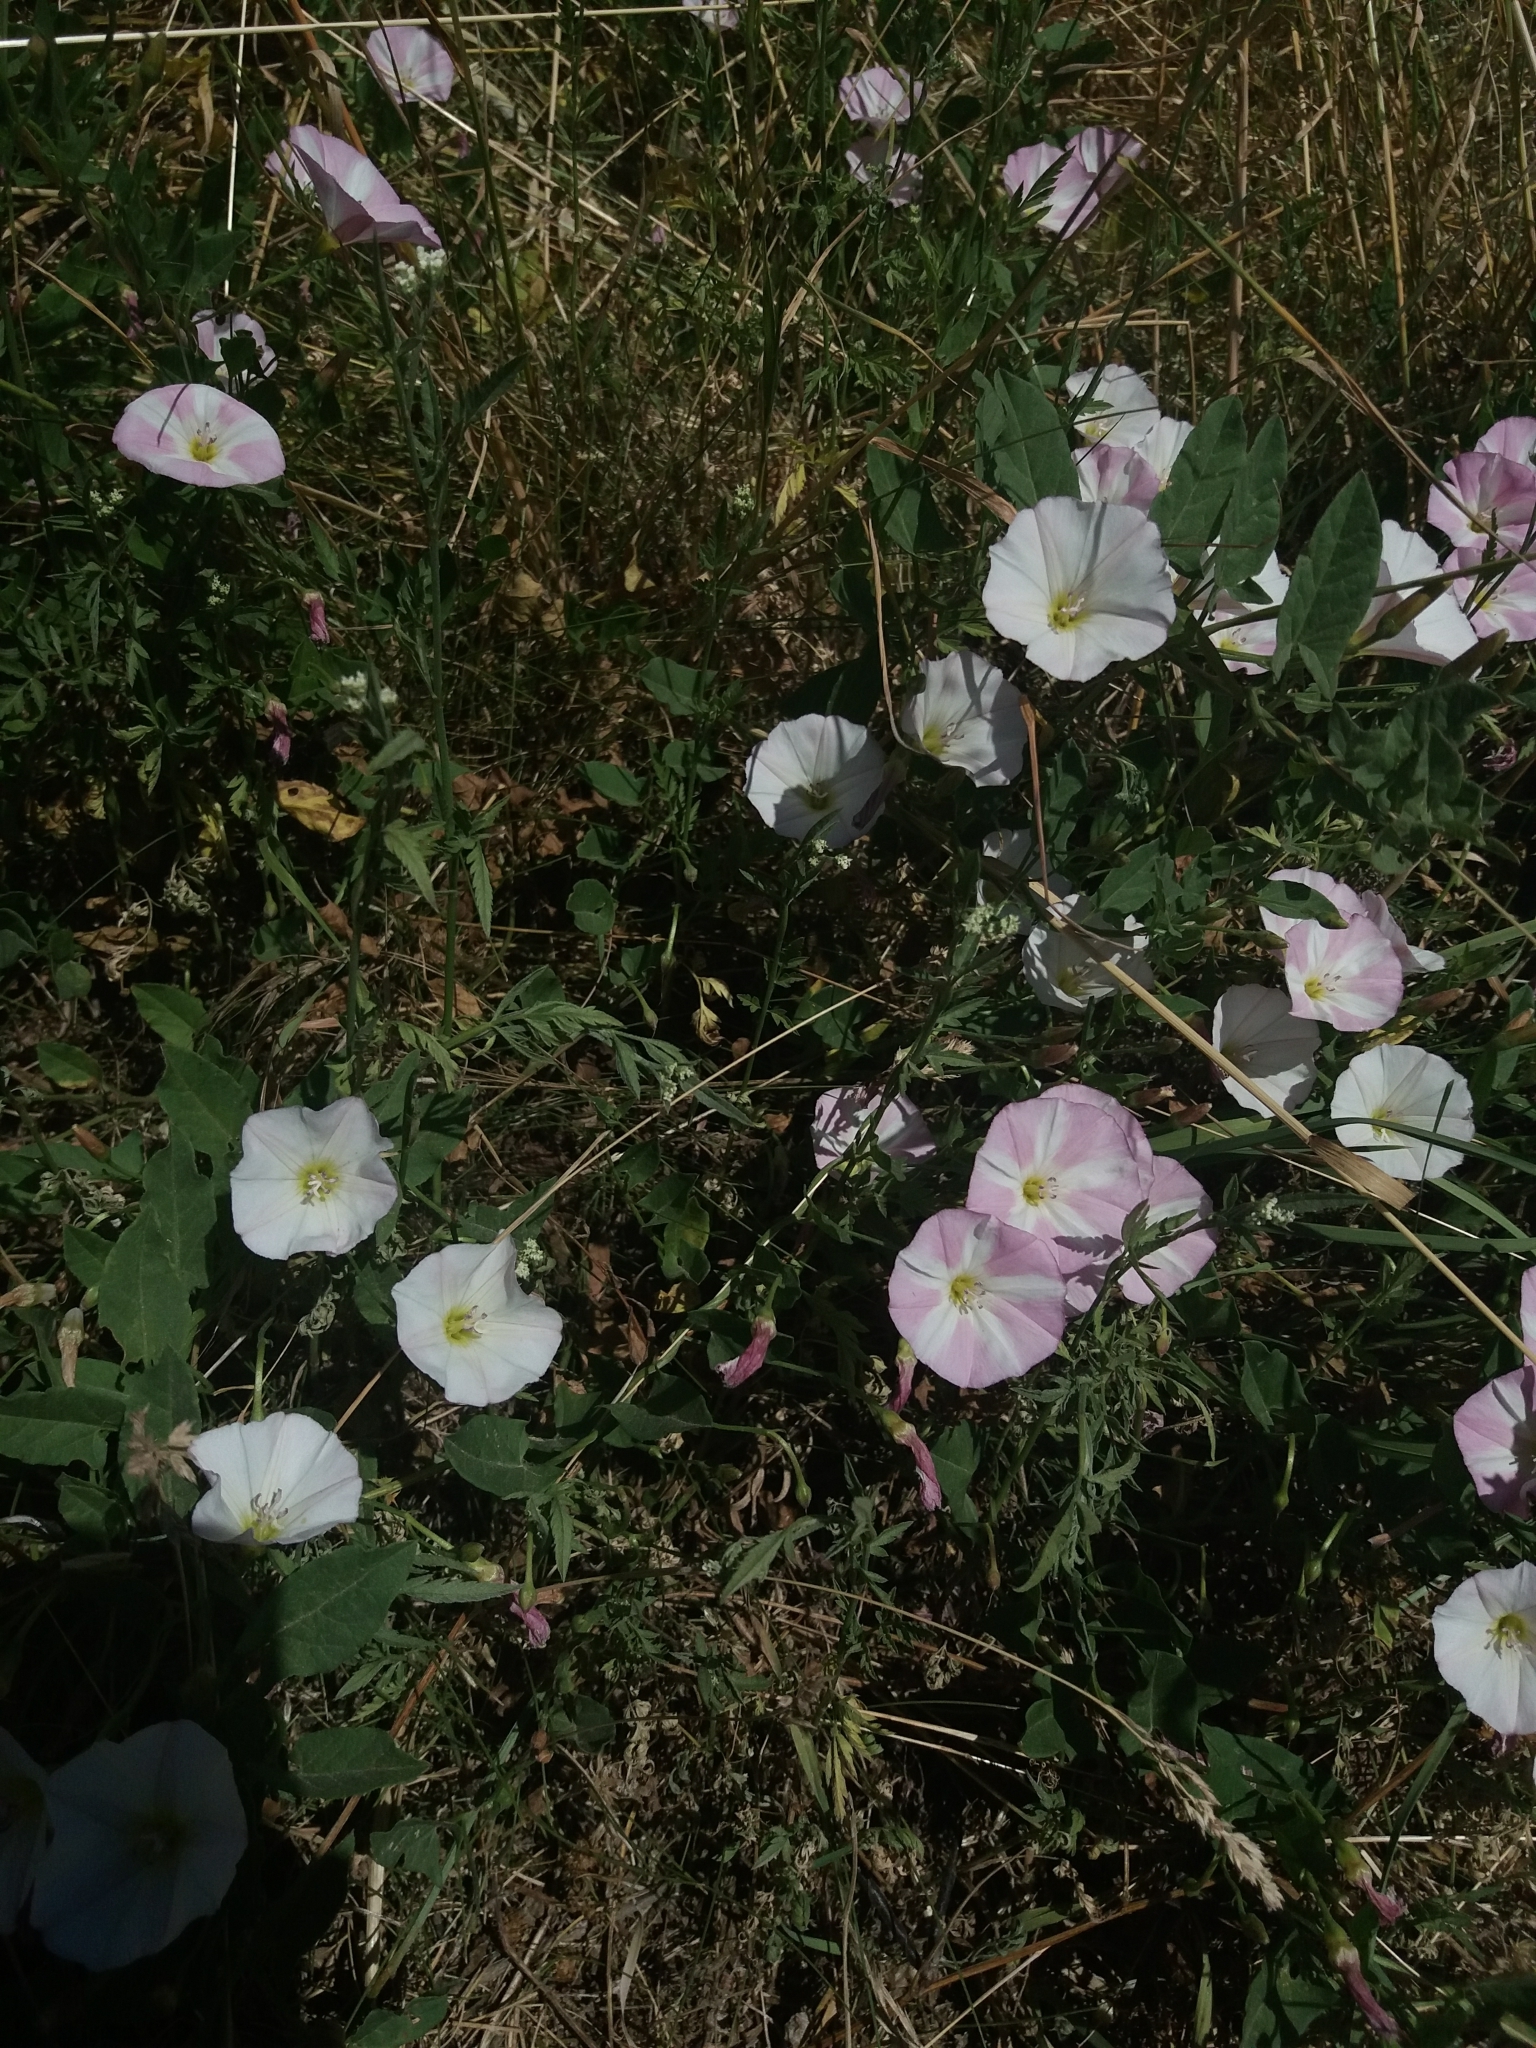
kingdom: Plantae
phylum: Tracheophyta
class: Magnoliopsida
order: Solanales
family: Convolvulaceae
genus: Convolvulus
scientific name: Convolvulus arvensis
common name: Field bindweed
